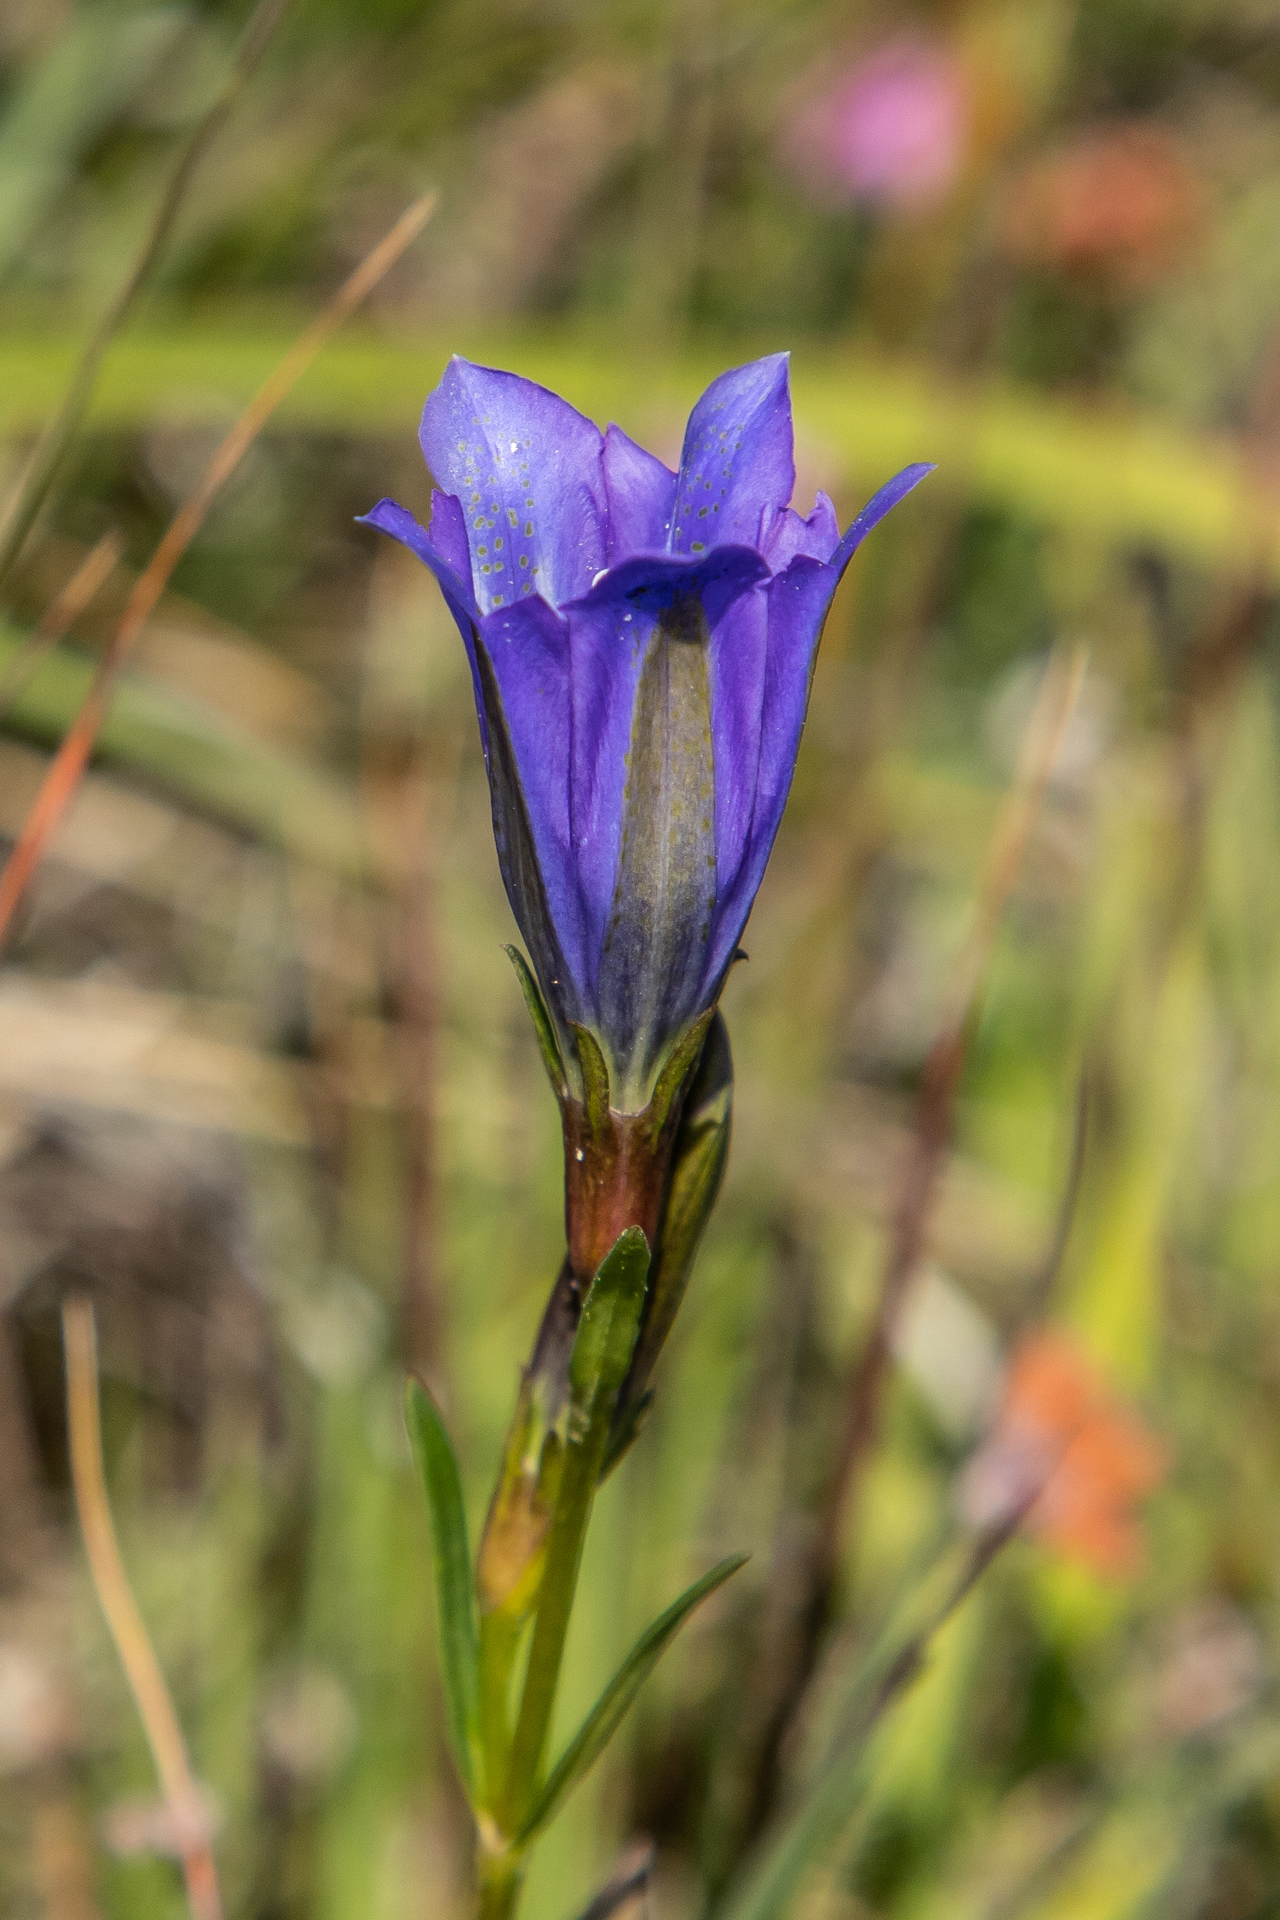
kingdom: Plantae
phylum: Tracheophyta
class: Magnoliopsida
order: Gentianales
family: Gentianaceae
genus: Gentiana
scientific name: Gentiana pneumonanthe
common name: Marsh gentian
